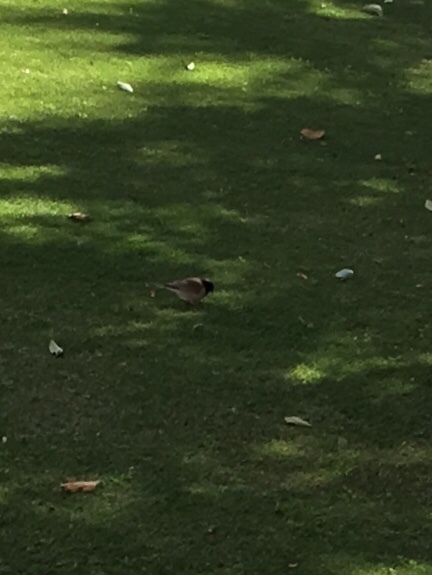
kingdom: Animalia
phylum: Chordata
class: Aves
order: Passeriformes
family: Passerellidae
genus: Junco
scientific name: Junco hyemalis
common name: Dark-eyed junco
